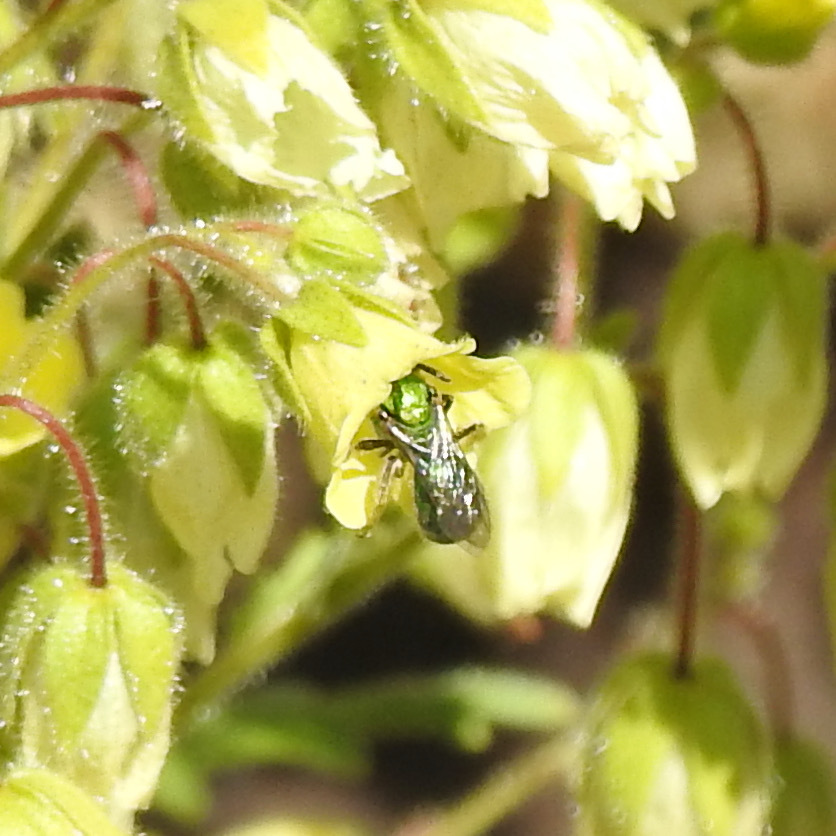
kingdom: Animalia
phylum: Arthropoda
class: Insecta
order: Hymenoptera
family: Halictidae
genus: Augochlorella
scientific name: Augochlorella pomoniella
